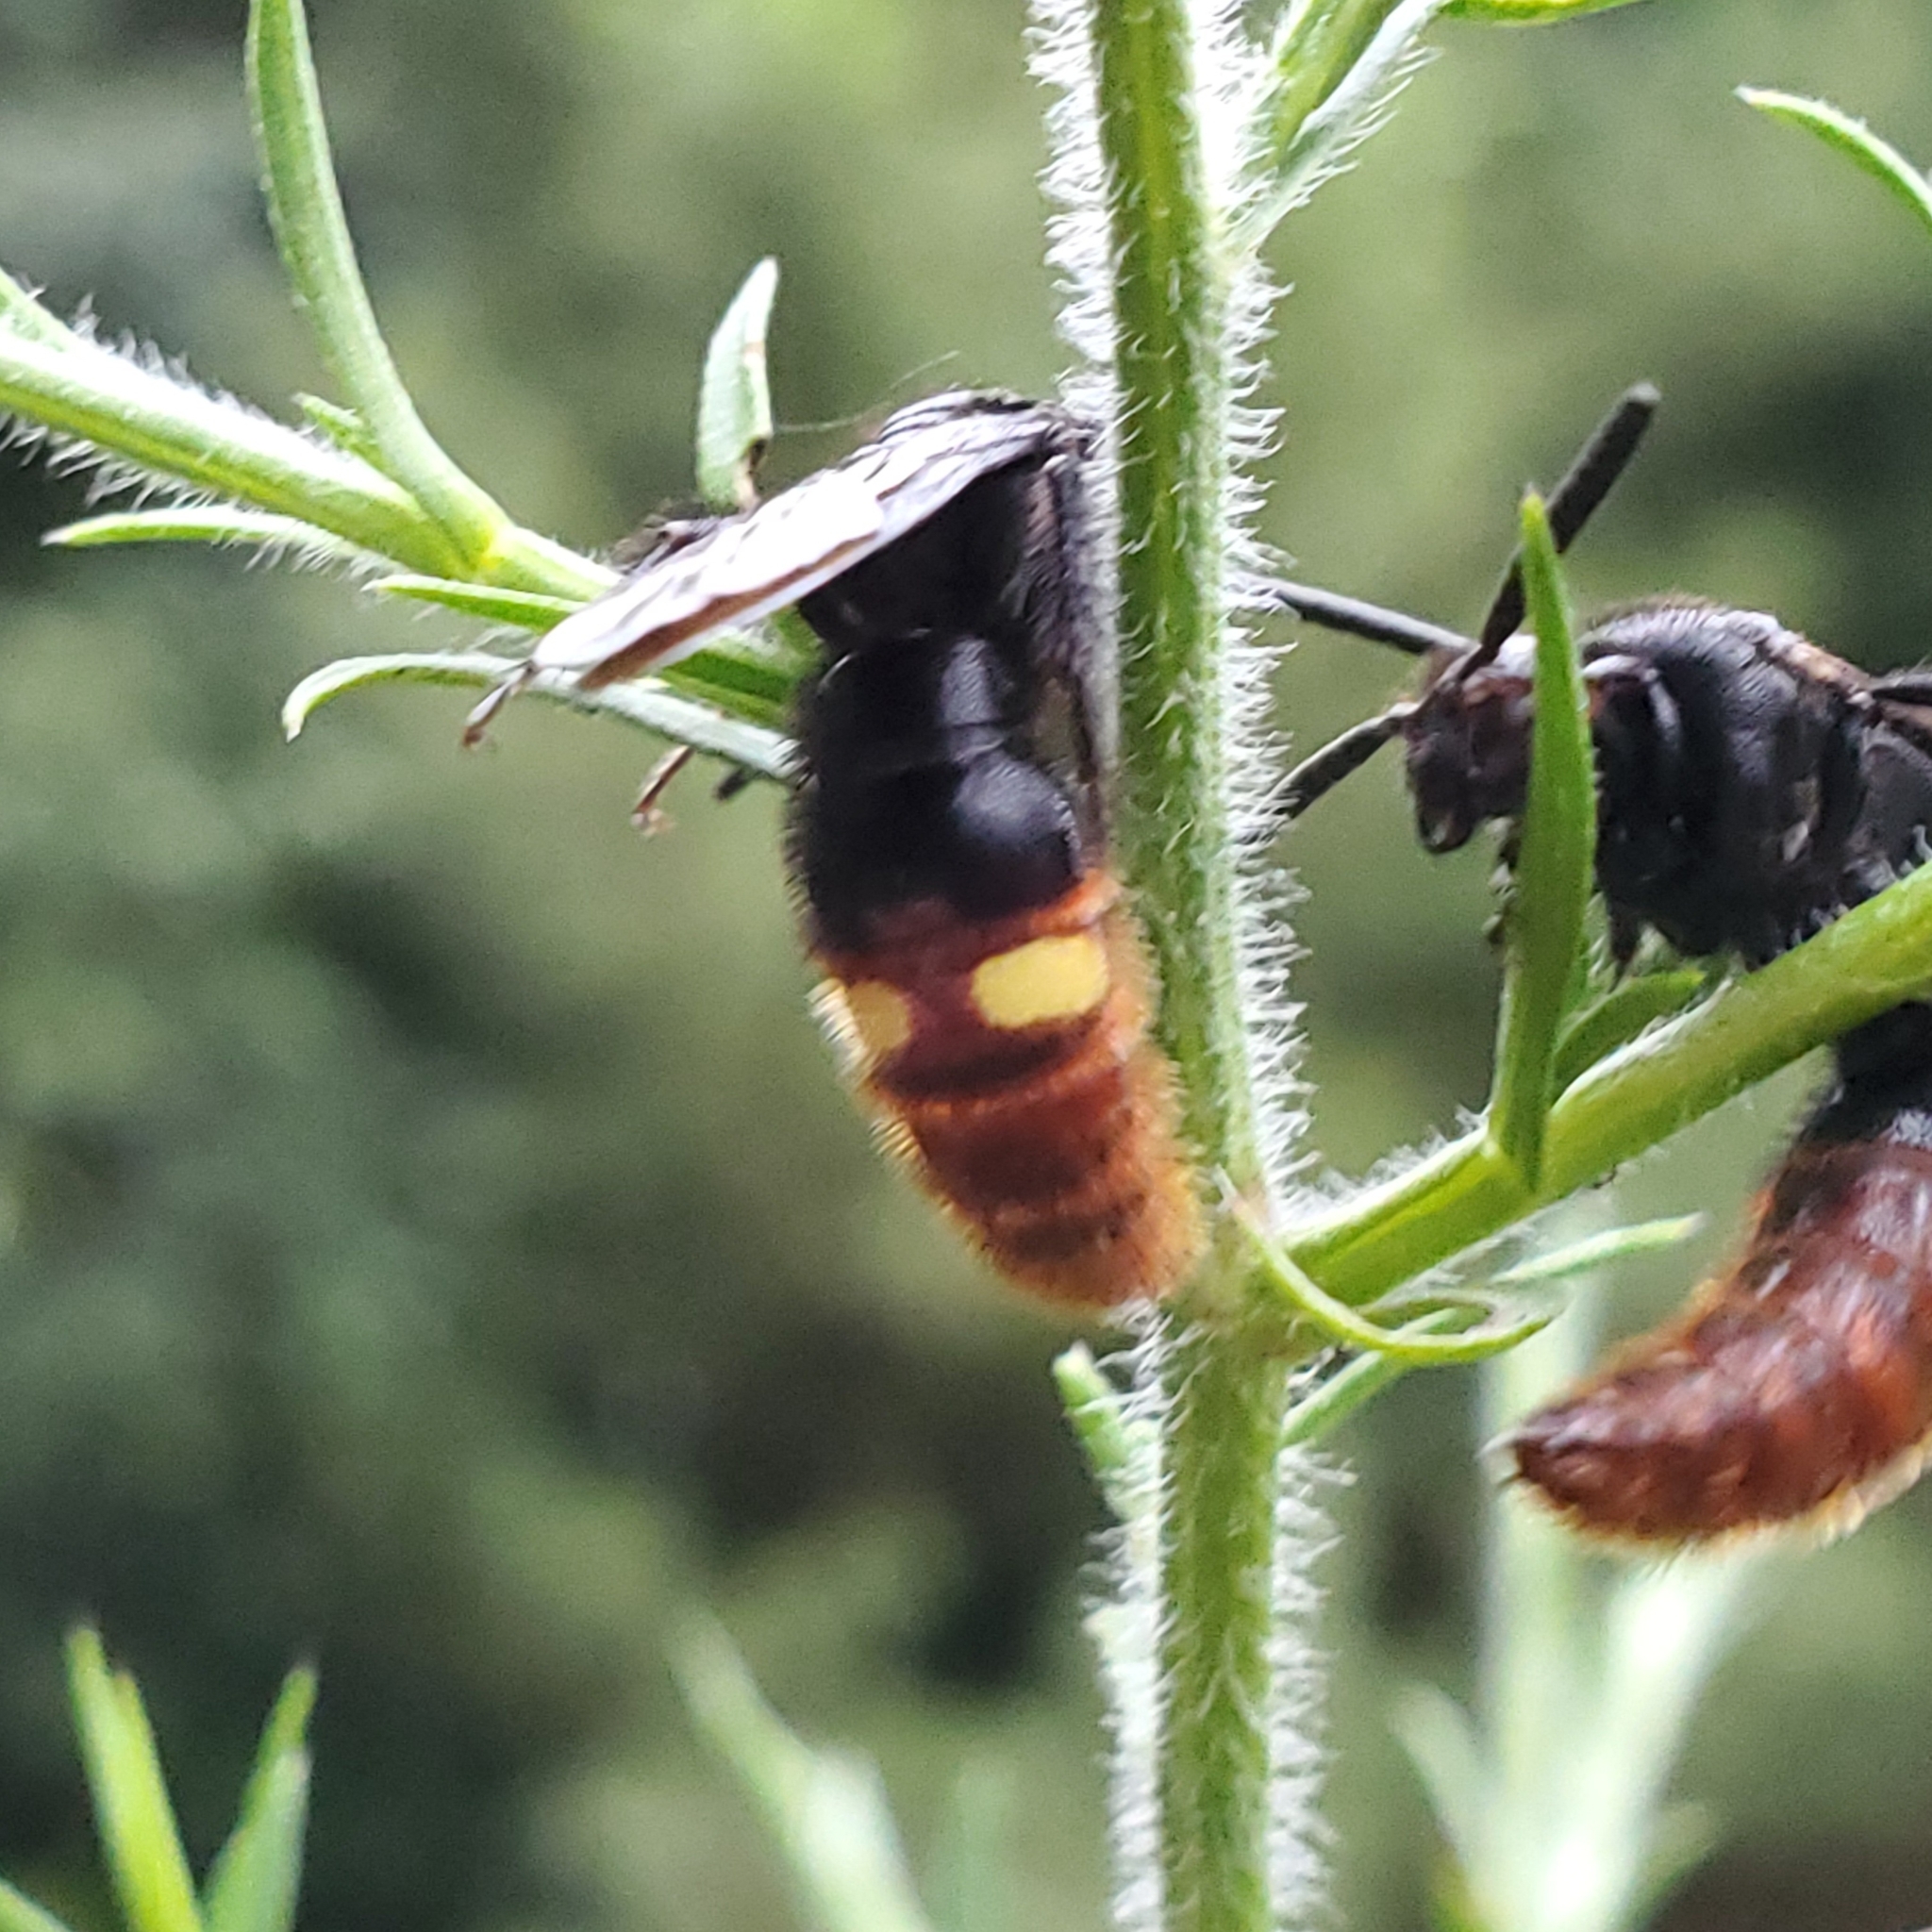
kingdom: Animalia
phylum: Arthropoda
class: Insecta
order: Hymenoptera
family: Scoliidae
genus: Scolia
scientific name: Scolia dubia
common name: Blue-winged scoliid wasp
